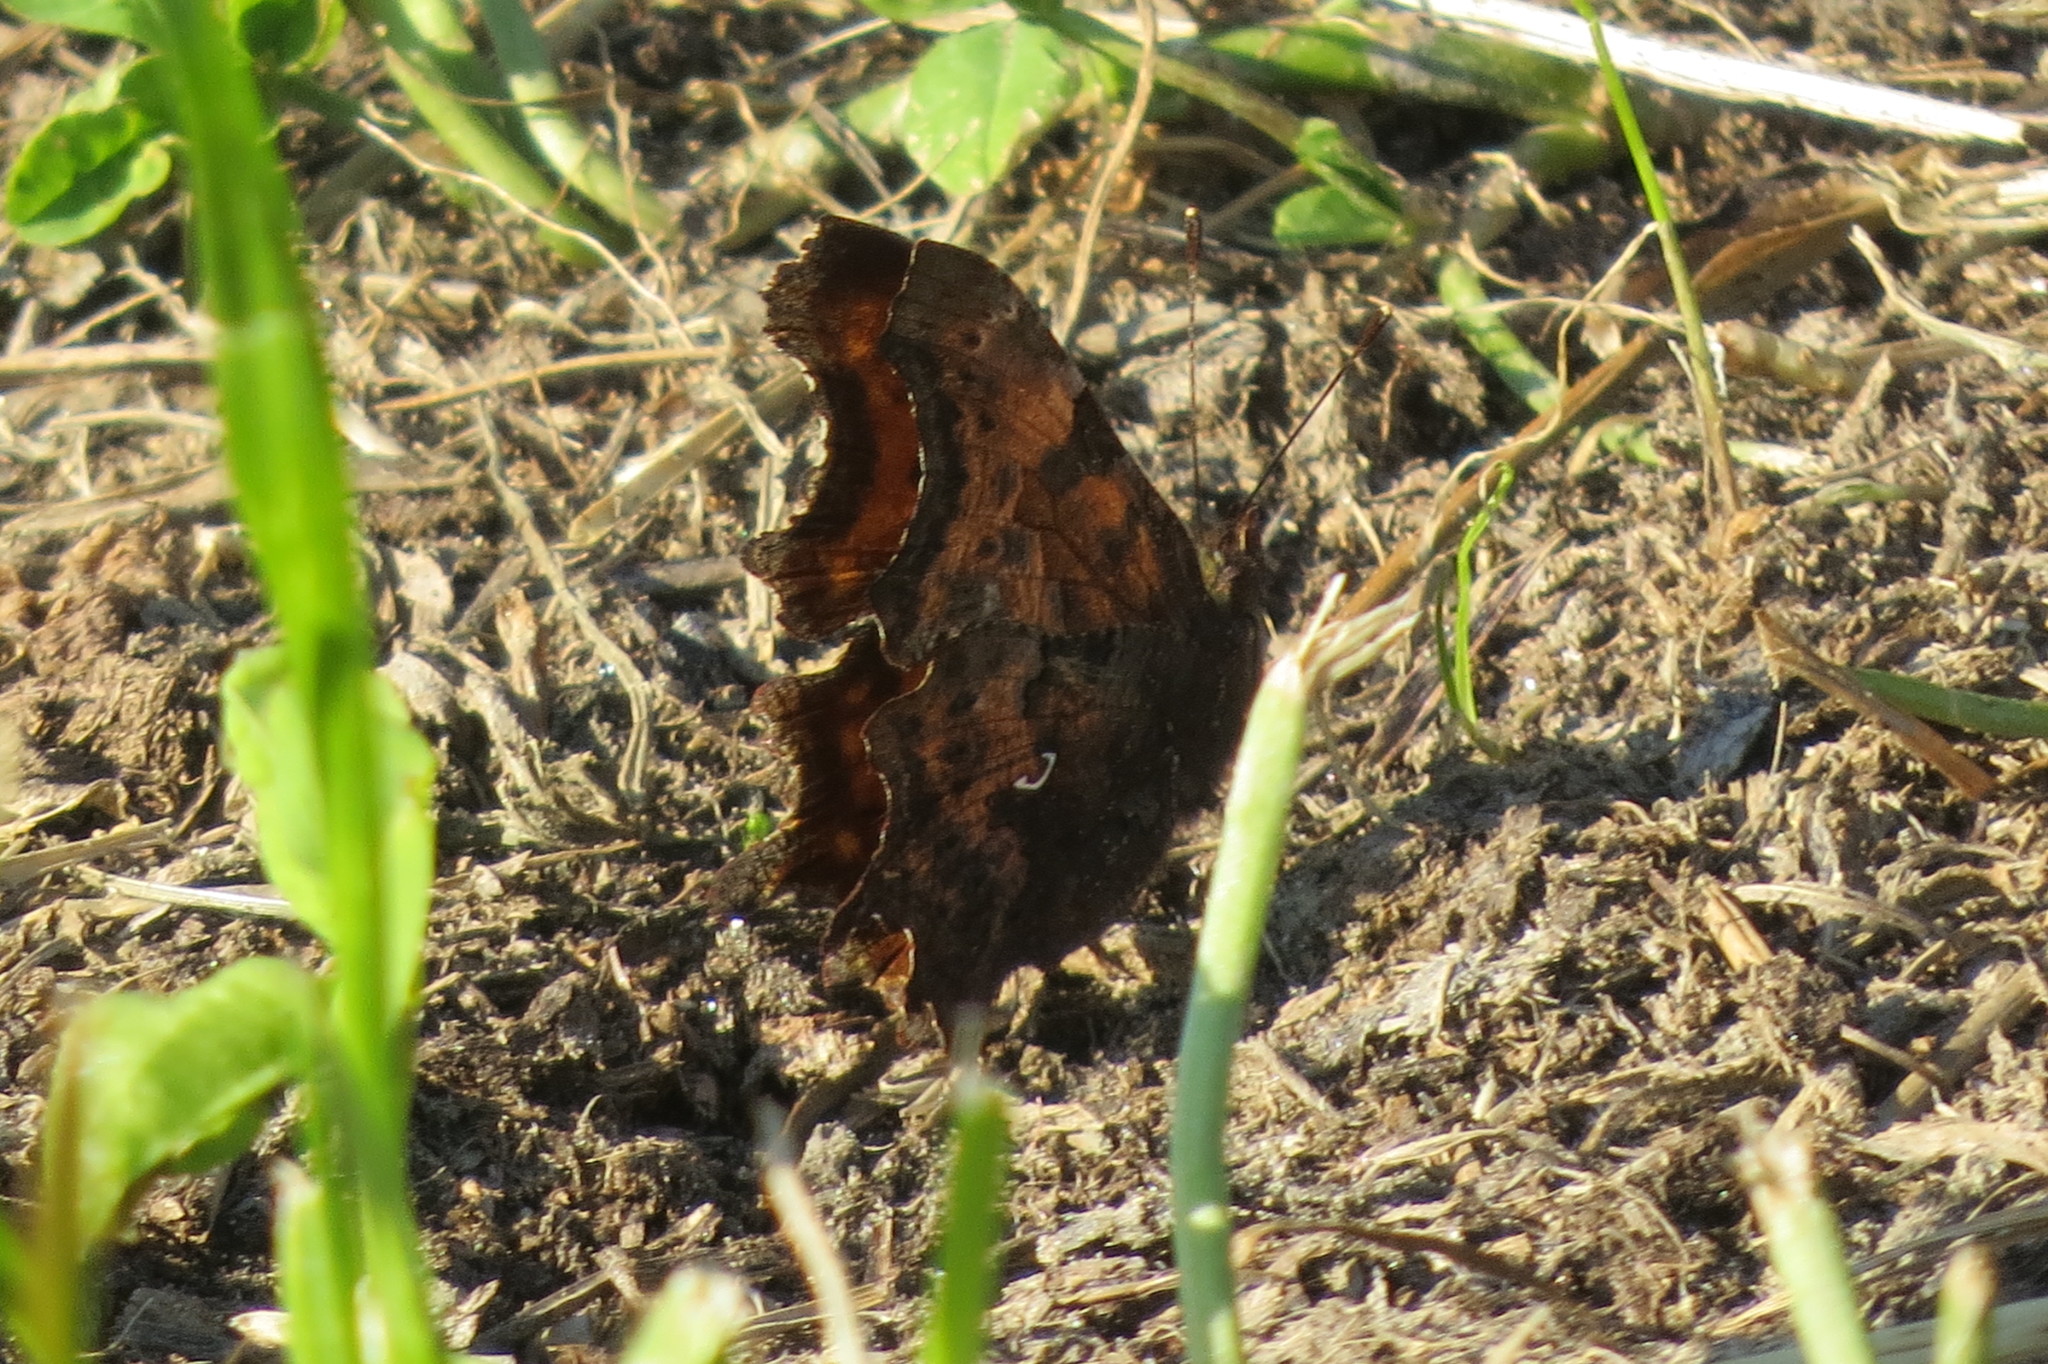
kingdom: Animalia
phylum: Arthropoda
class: Insecta
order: Lepidoptera
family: Nymphalidae
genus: Polygonia
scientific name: Polygonia c-album
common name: Comma
